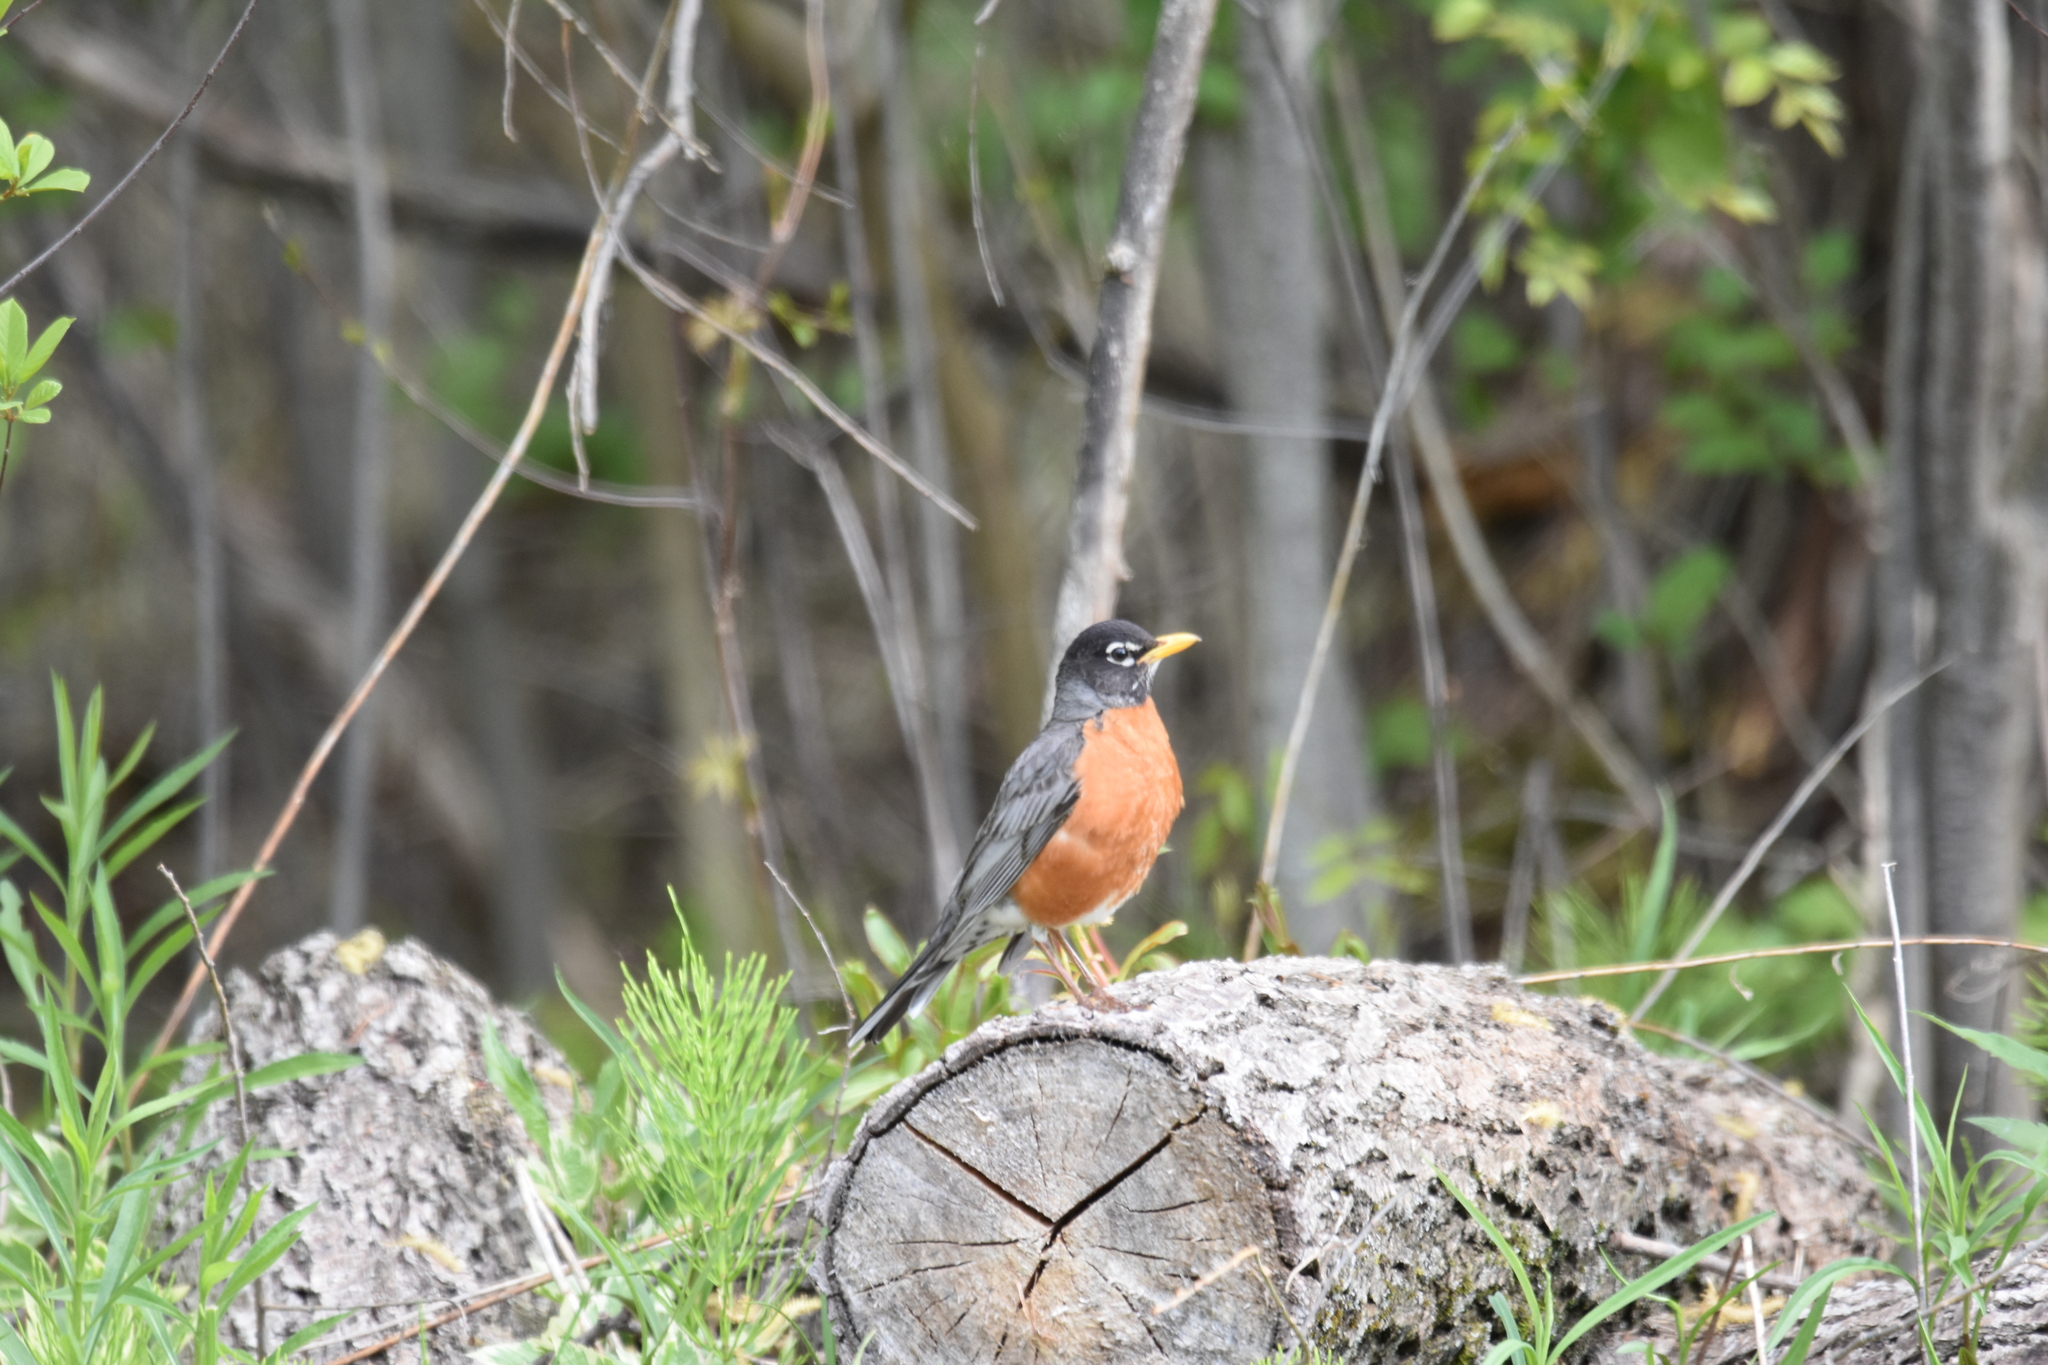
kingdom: Animalia
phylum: Chordata
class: Aves
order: Passeriformes
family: Turdidae
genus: Turdus
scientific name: Turdus migratorius
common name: American robin
